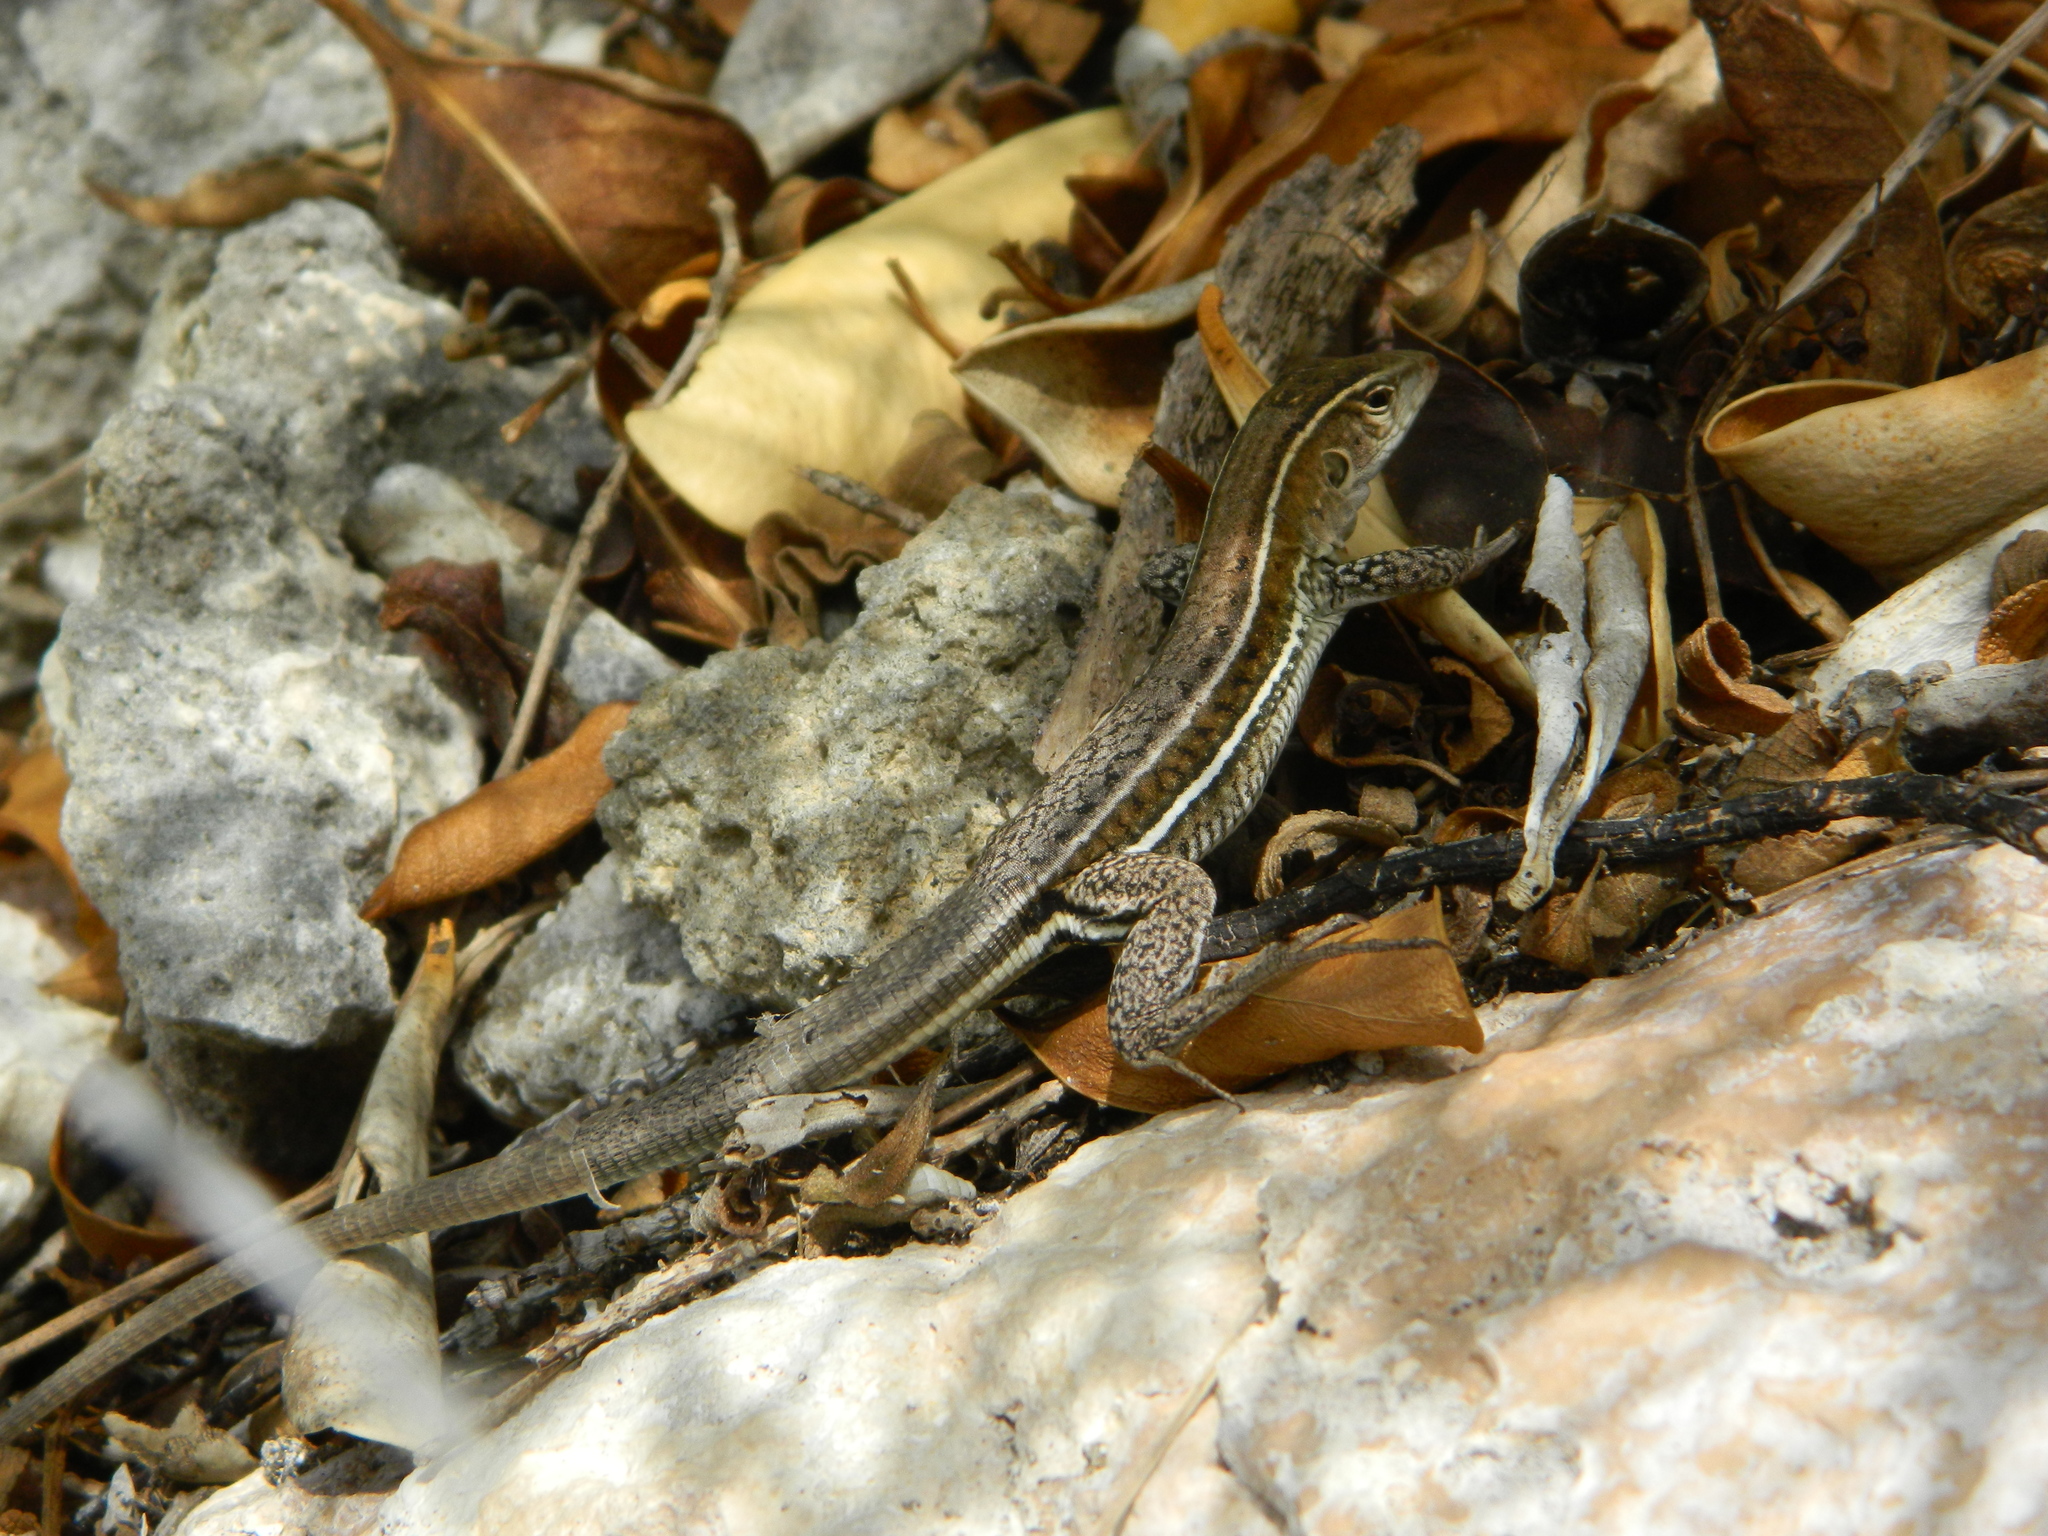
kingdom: Animalia
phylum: Chordata
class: Squamata
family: Teiidae
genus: Pholidoscelis
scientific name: Pholidoscelis griswoldi
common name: Antiguan ameiva
